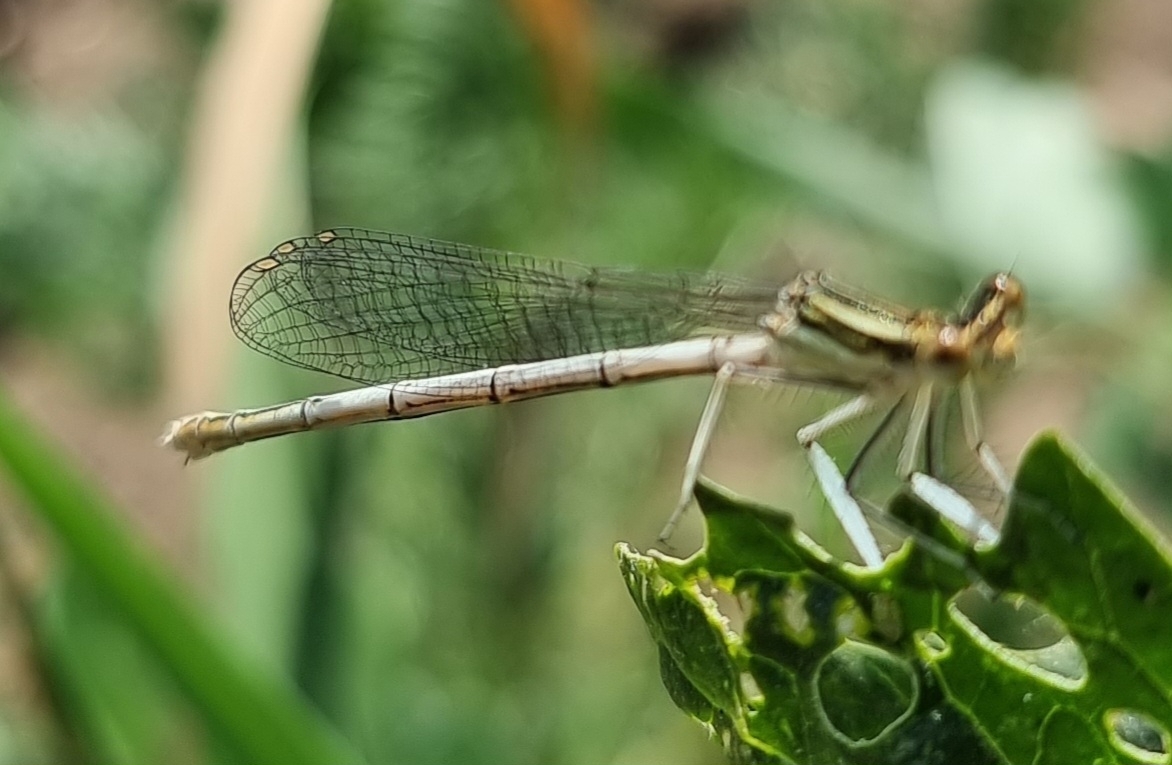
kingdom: Animalia
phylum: Arthropoda
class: Insecta
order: Odonata
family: Platycnemididae
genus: Platycnemis
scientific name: Platycnemis pennipes
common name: White-legged damselfly
